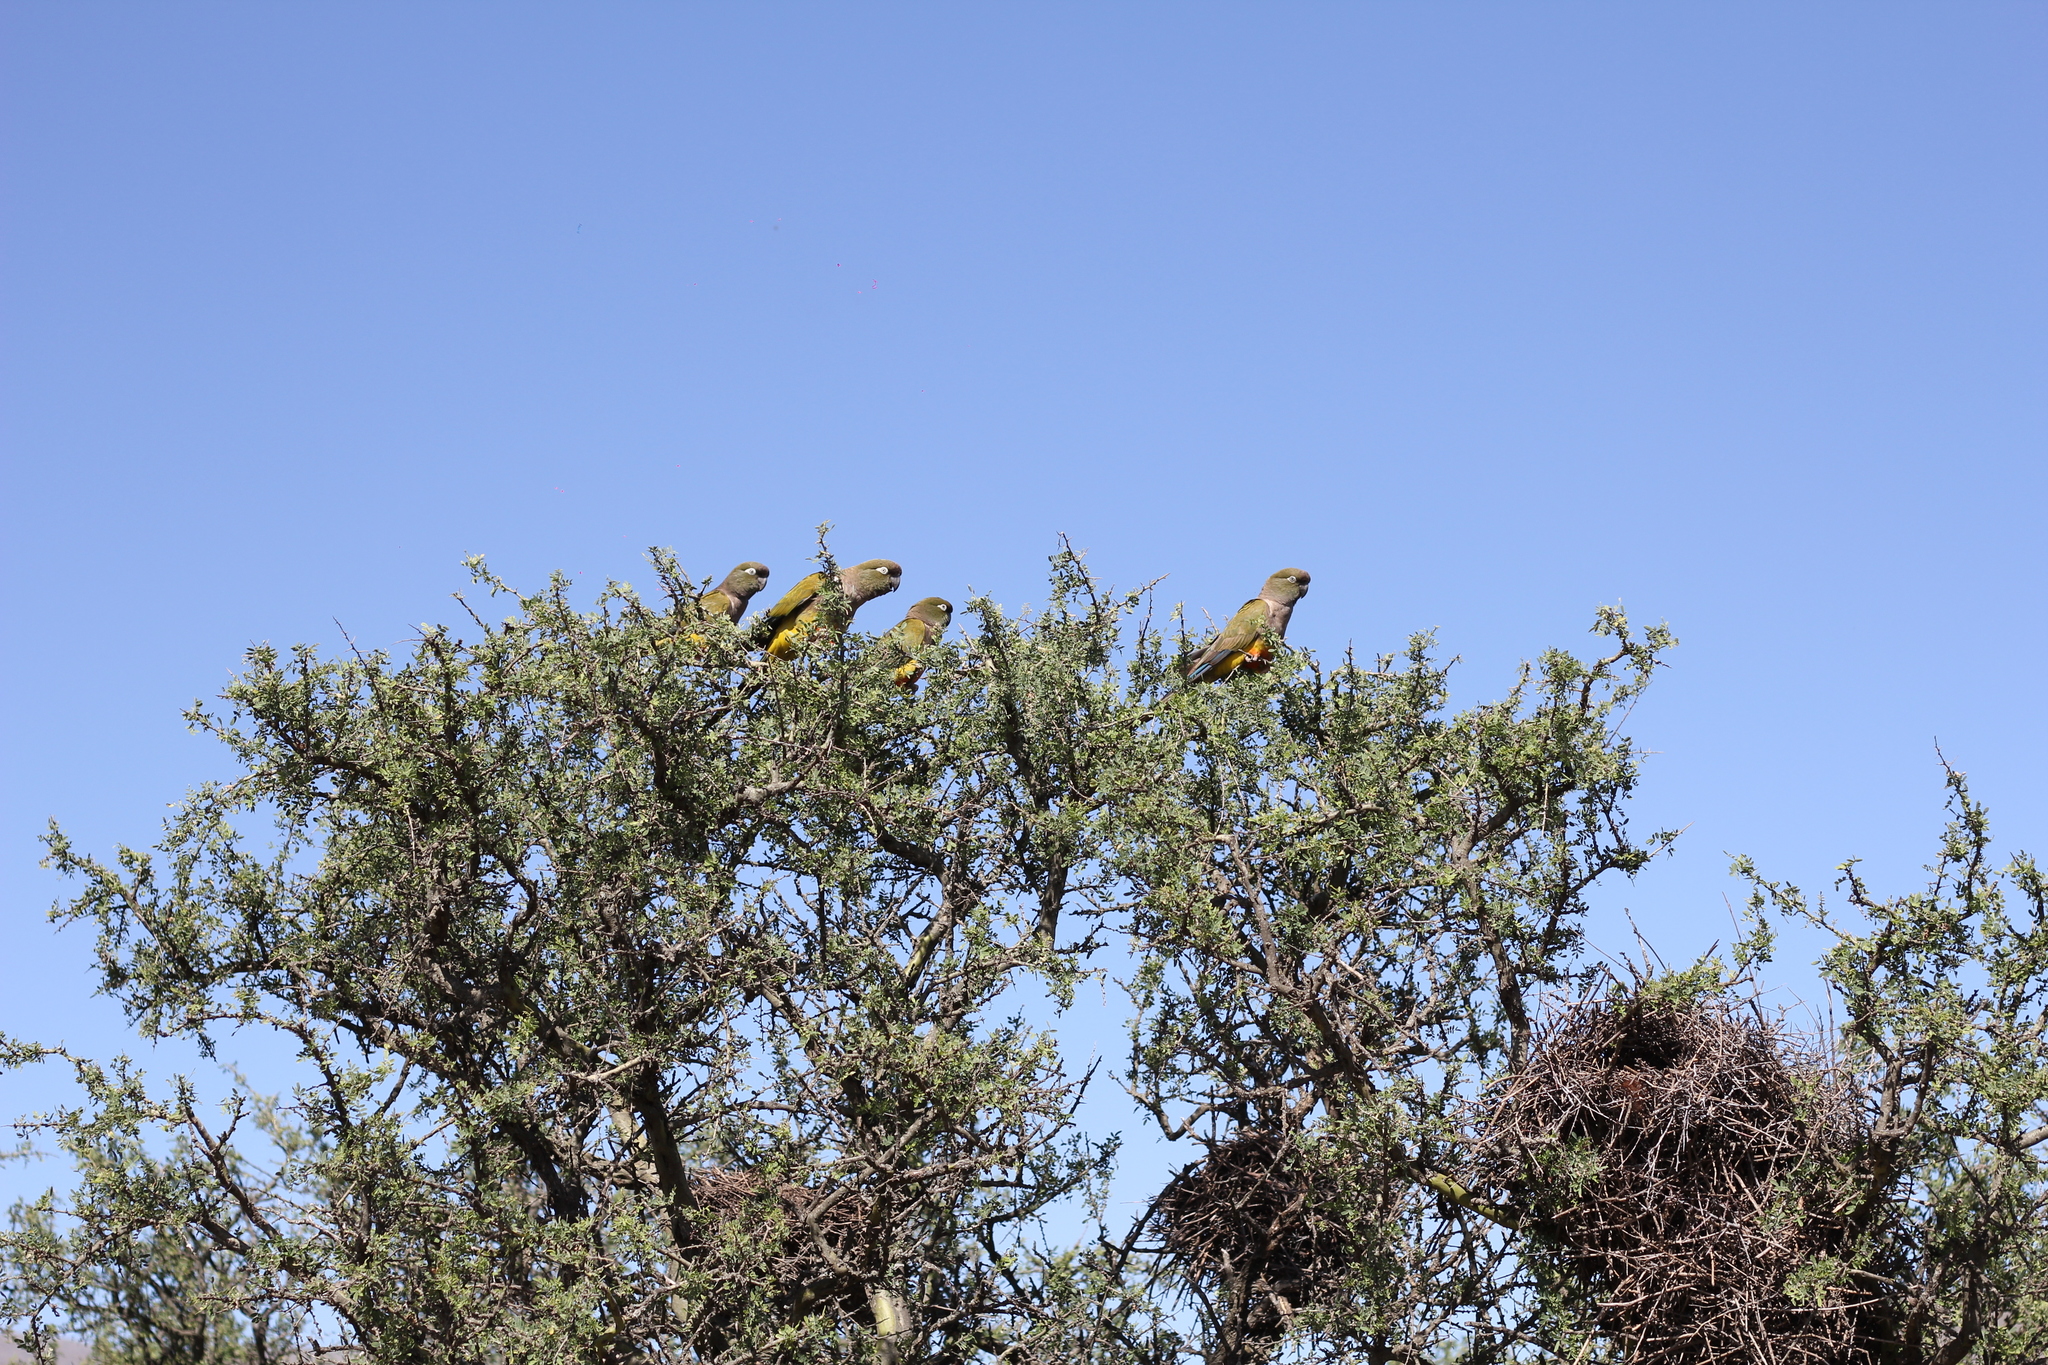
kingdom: Animalia
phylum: Chordata
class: Aves
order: Psittaciformes
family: Psittacidae
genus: Cyanoliseus
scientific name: Cyanoliseus patagonus
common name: Burrowing parrot
